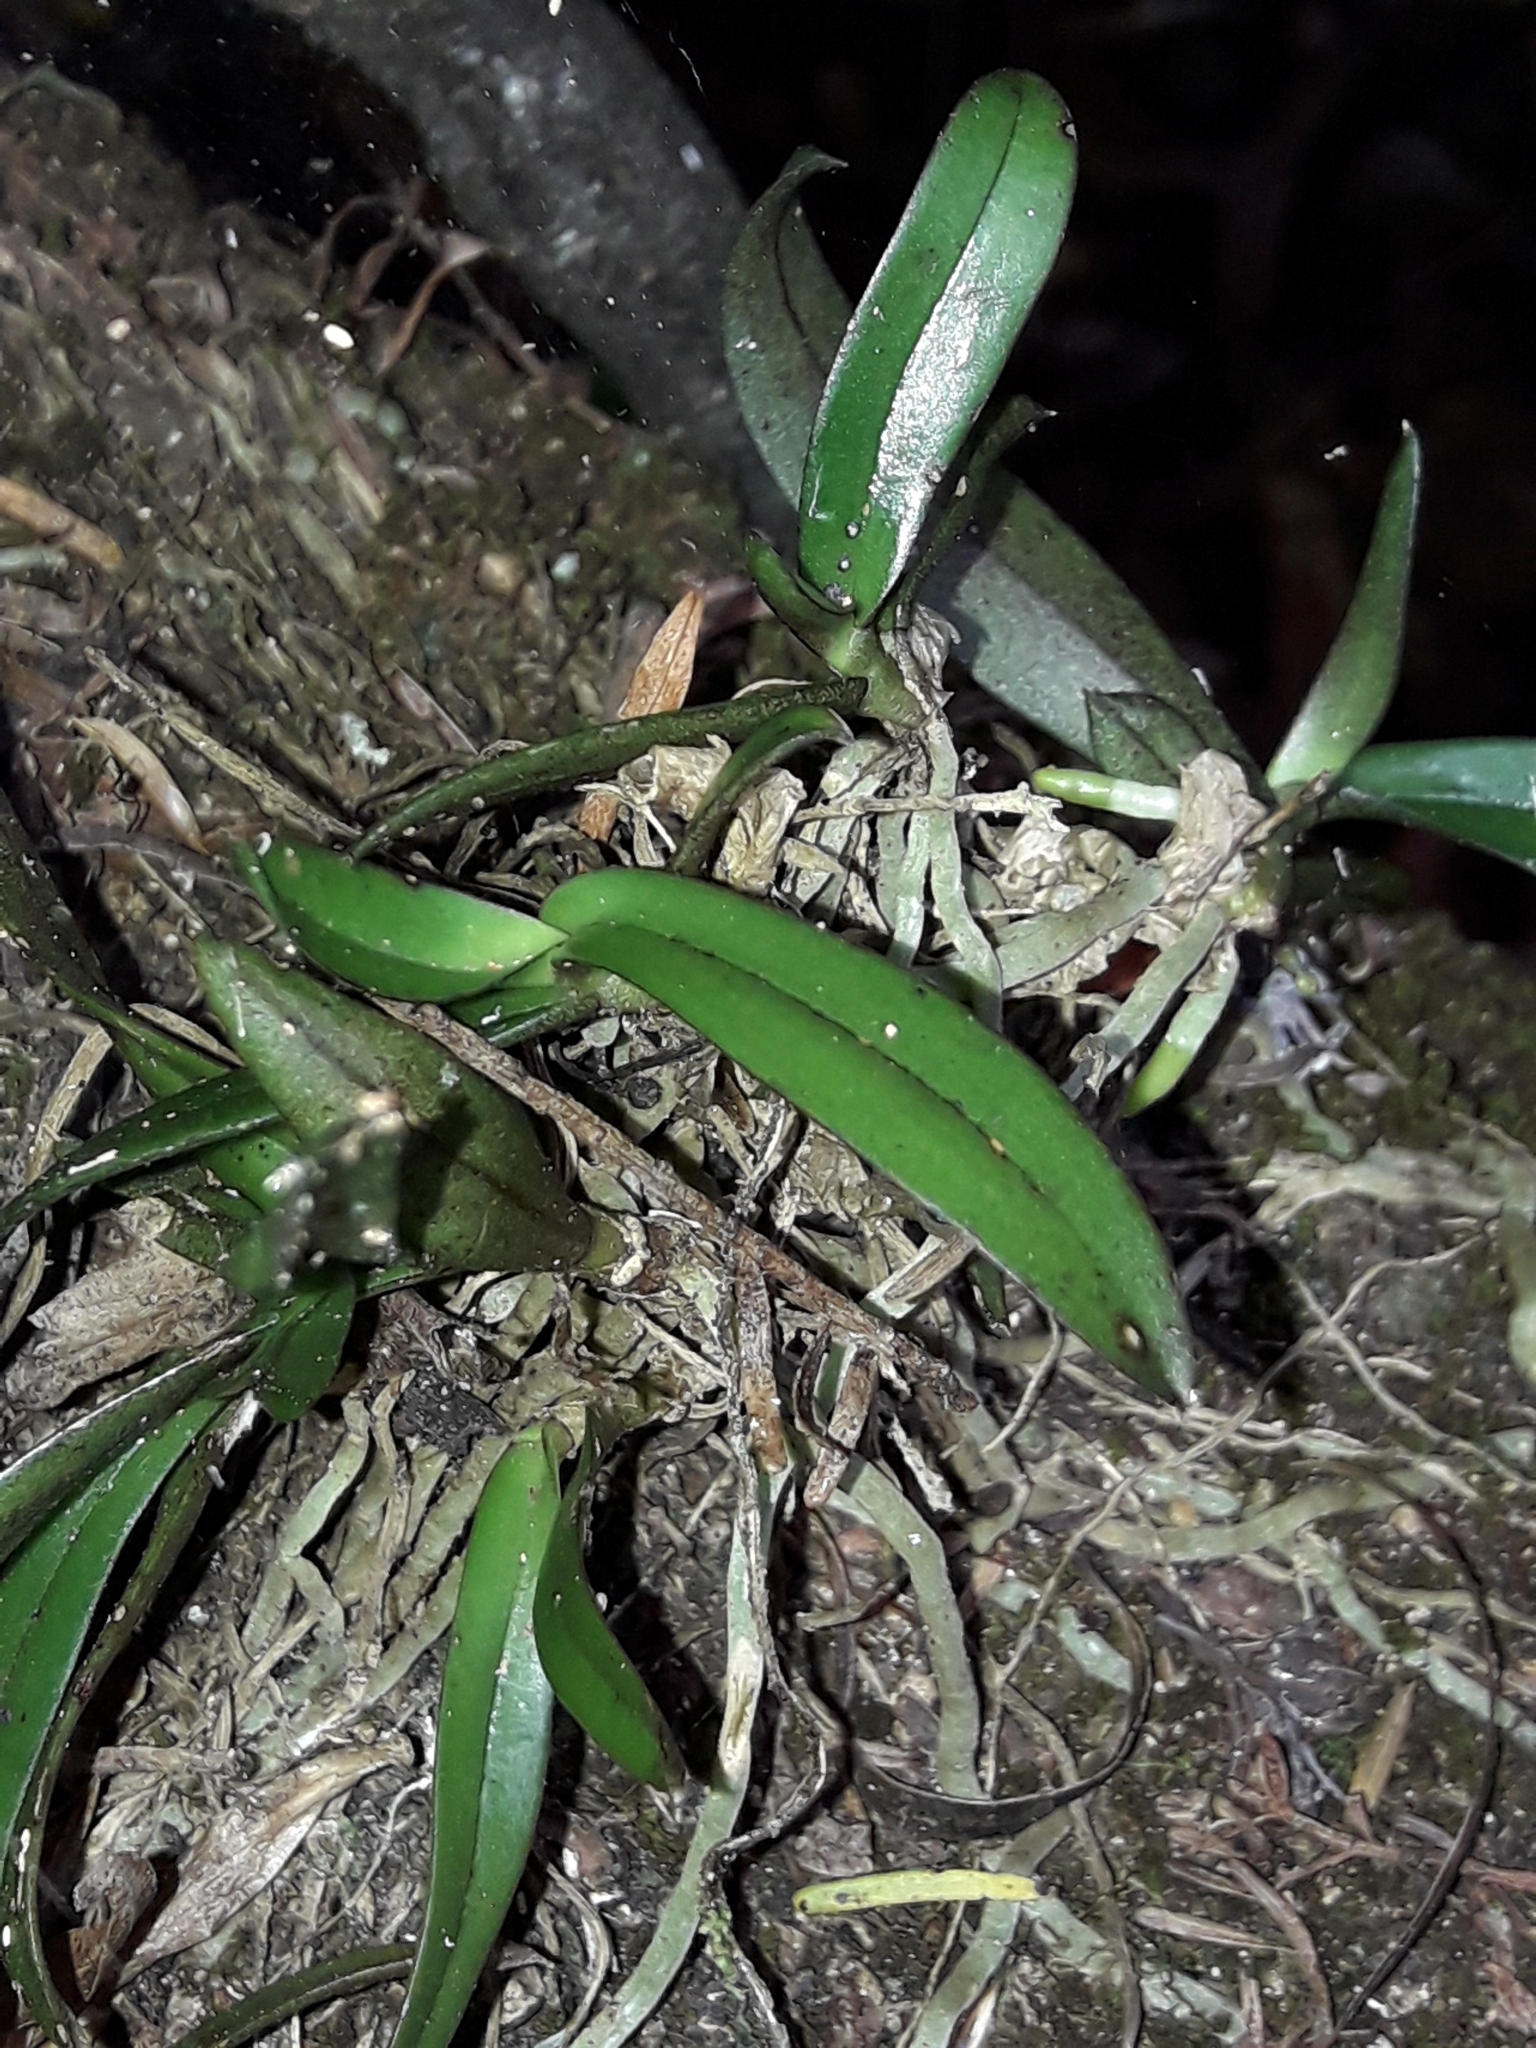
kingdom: Plantae
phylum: Tracheophyta
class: Liliopsida
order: Asparagales
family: Orchidaceae
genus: Drymoanthus
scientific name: Drymoanthus adversus
